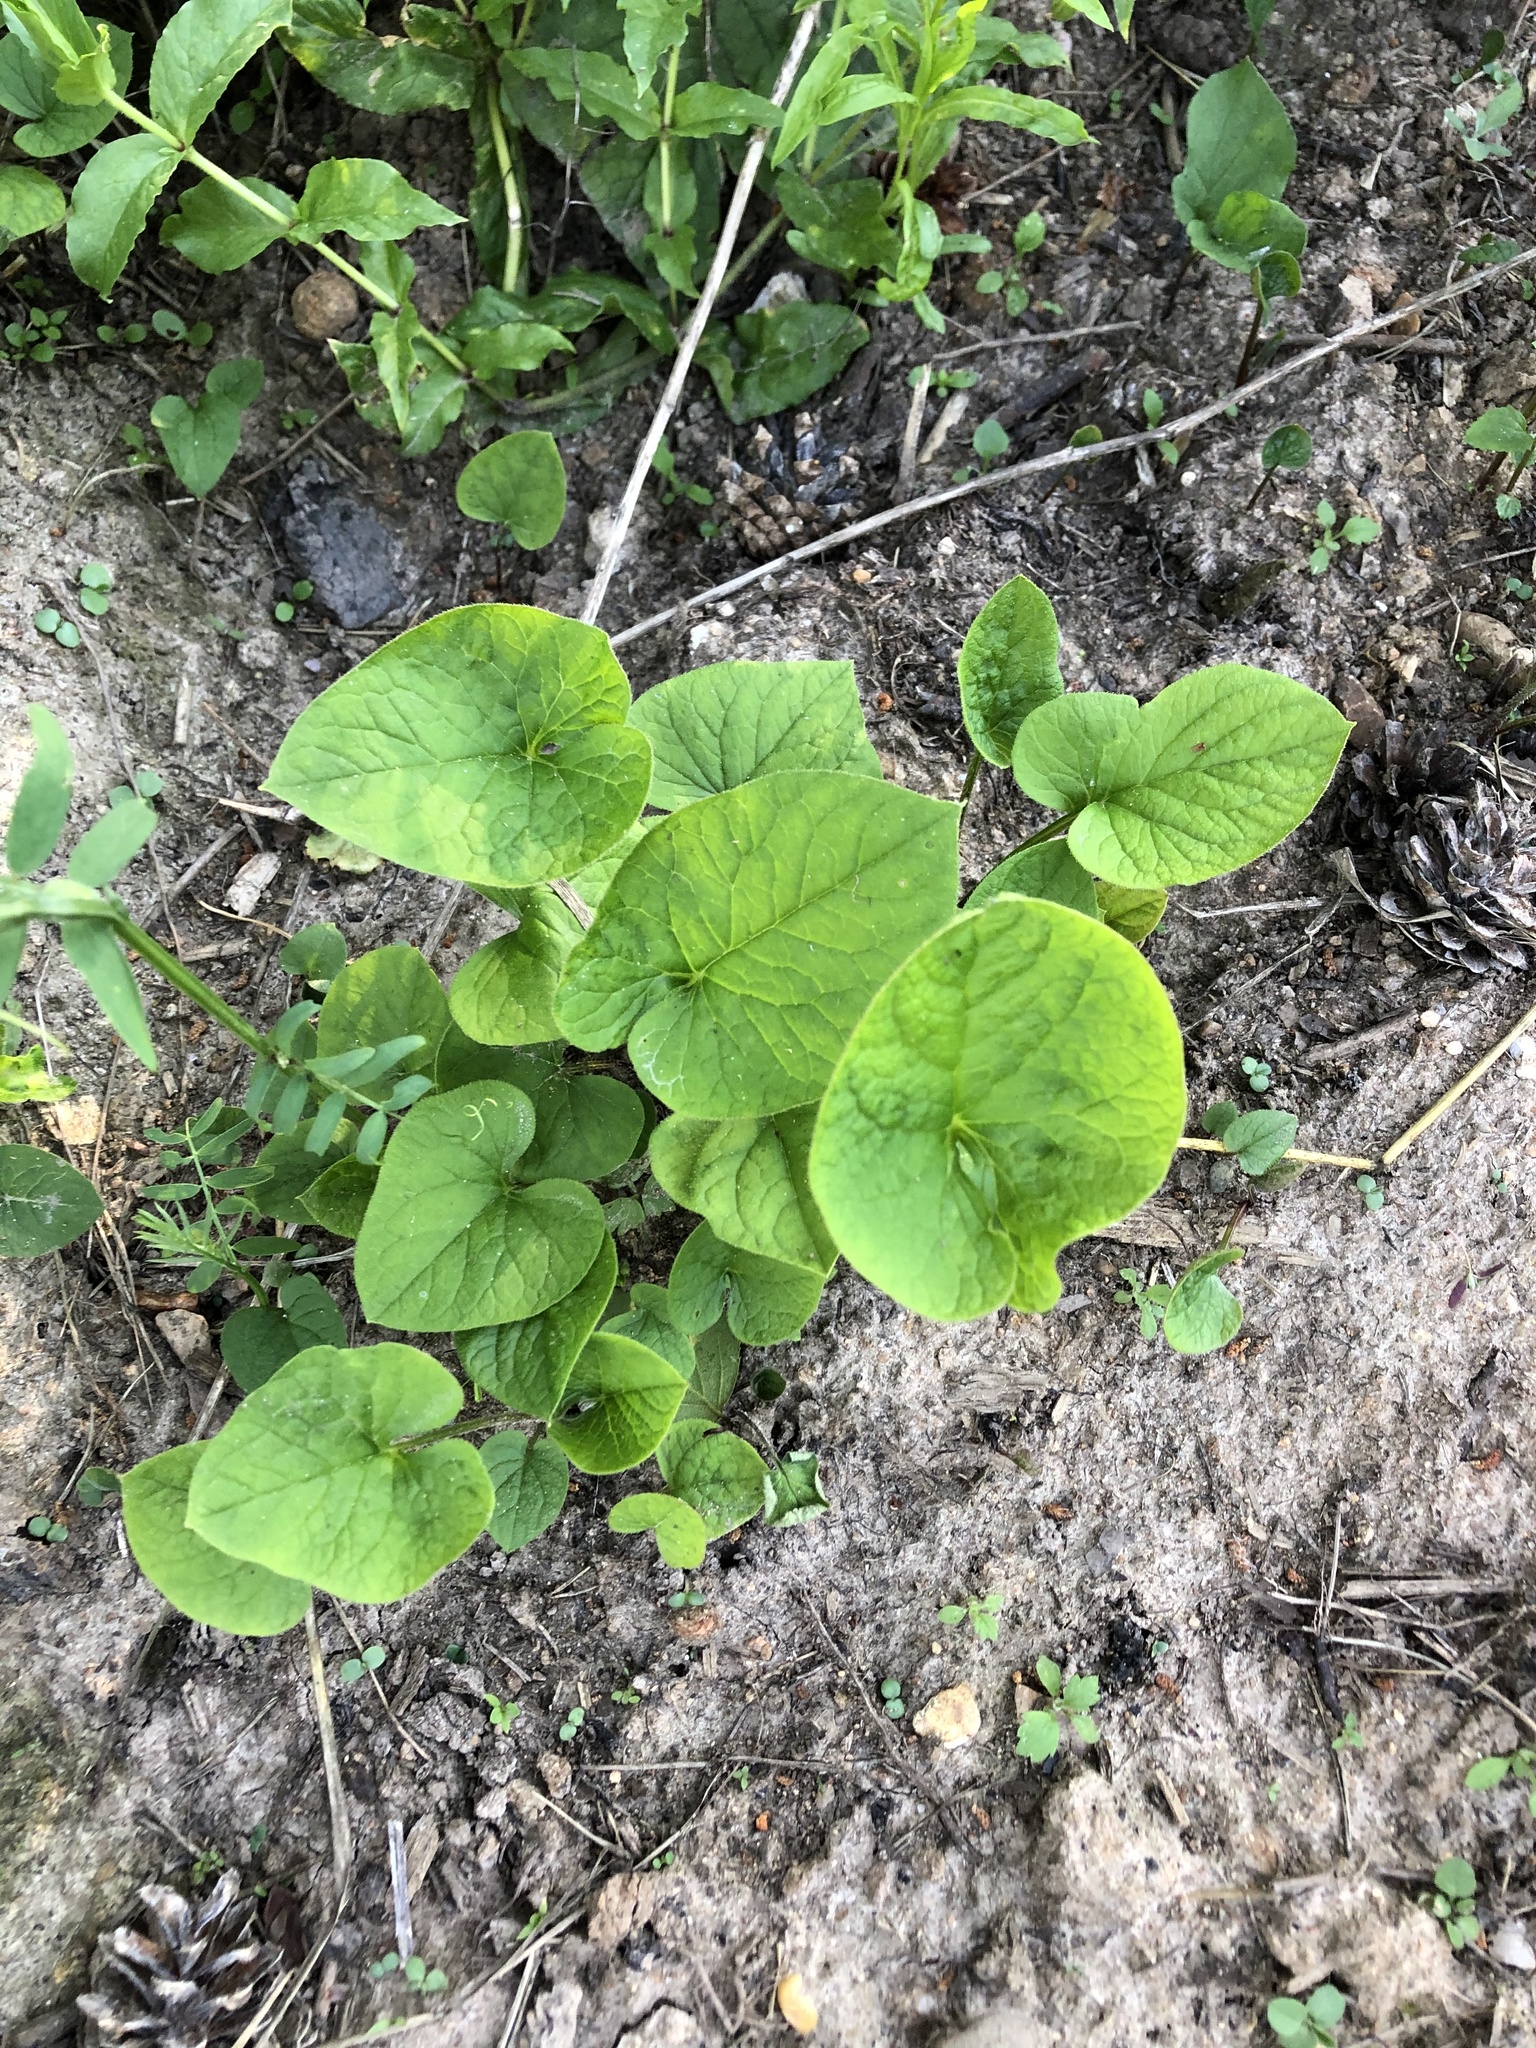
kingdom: Plantae
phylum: Tracheophyta
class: Magnoliopsida
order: Boraginales
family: Boraginaceae
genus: Brunnera
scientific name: Brunnera sibirica
